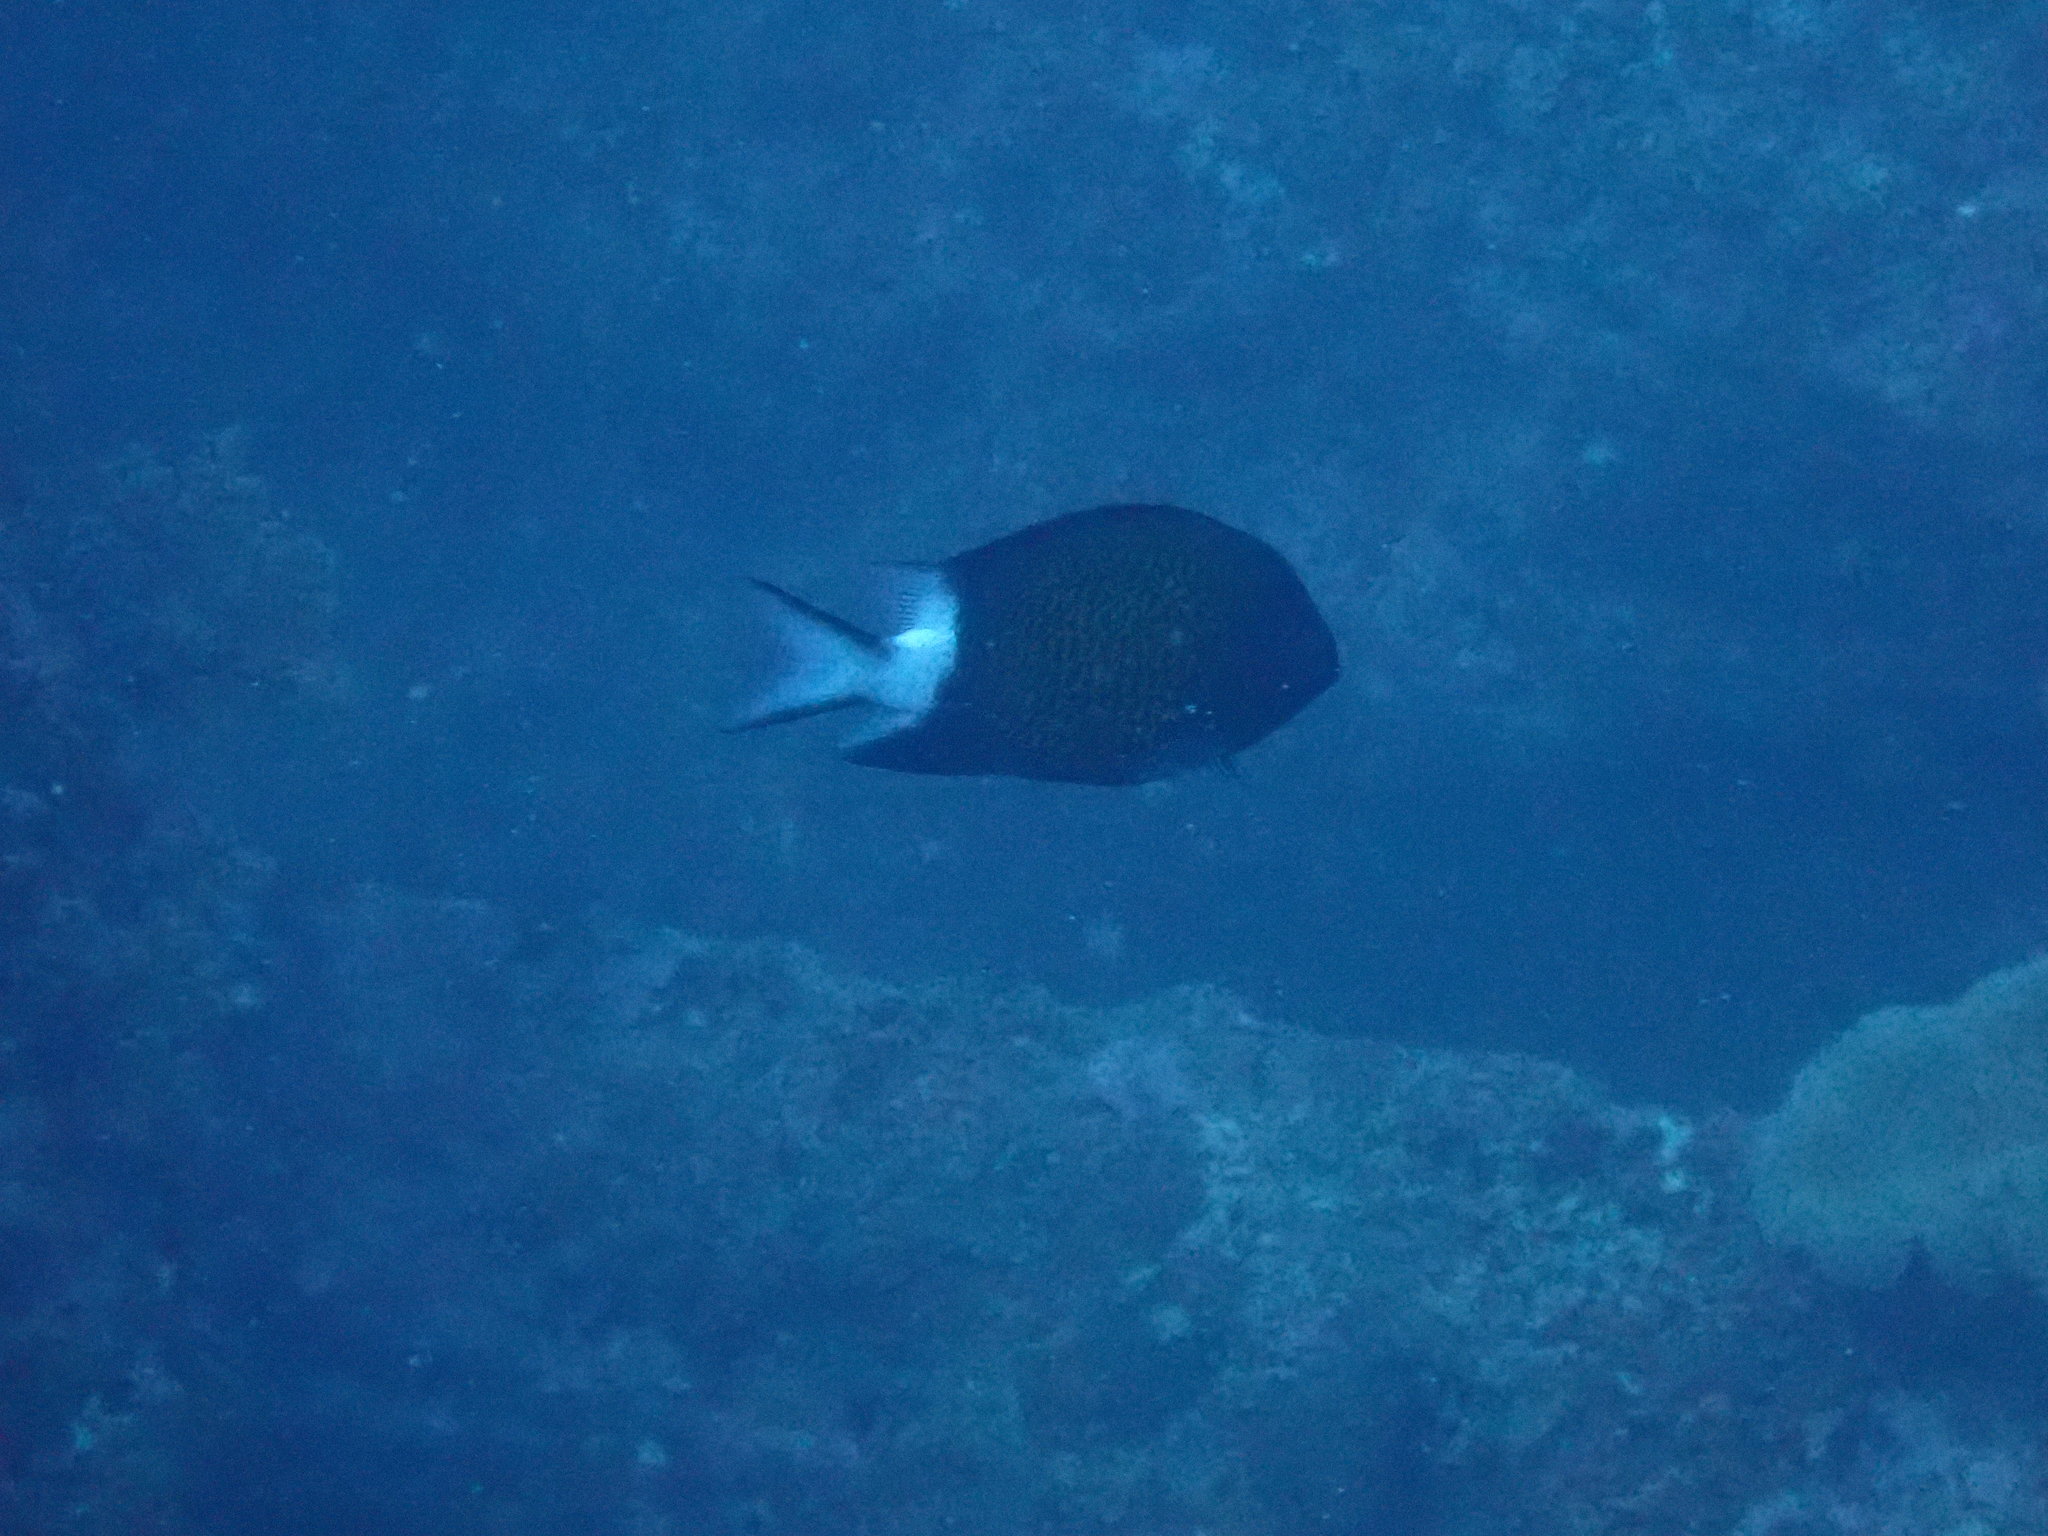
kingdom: Animalia
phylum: Chordata
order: Perciformes
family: Pomacentridae
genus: Chromis
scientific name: Chromis chrysura
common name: Stout-body chromis
